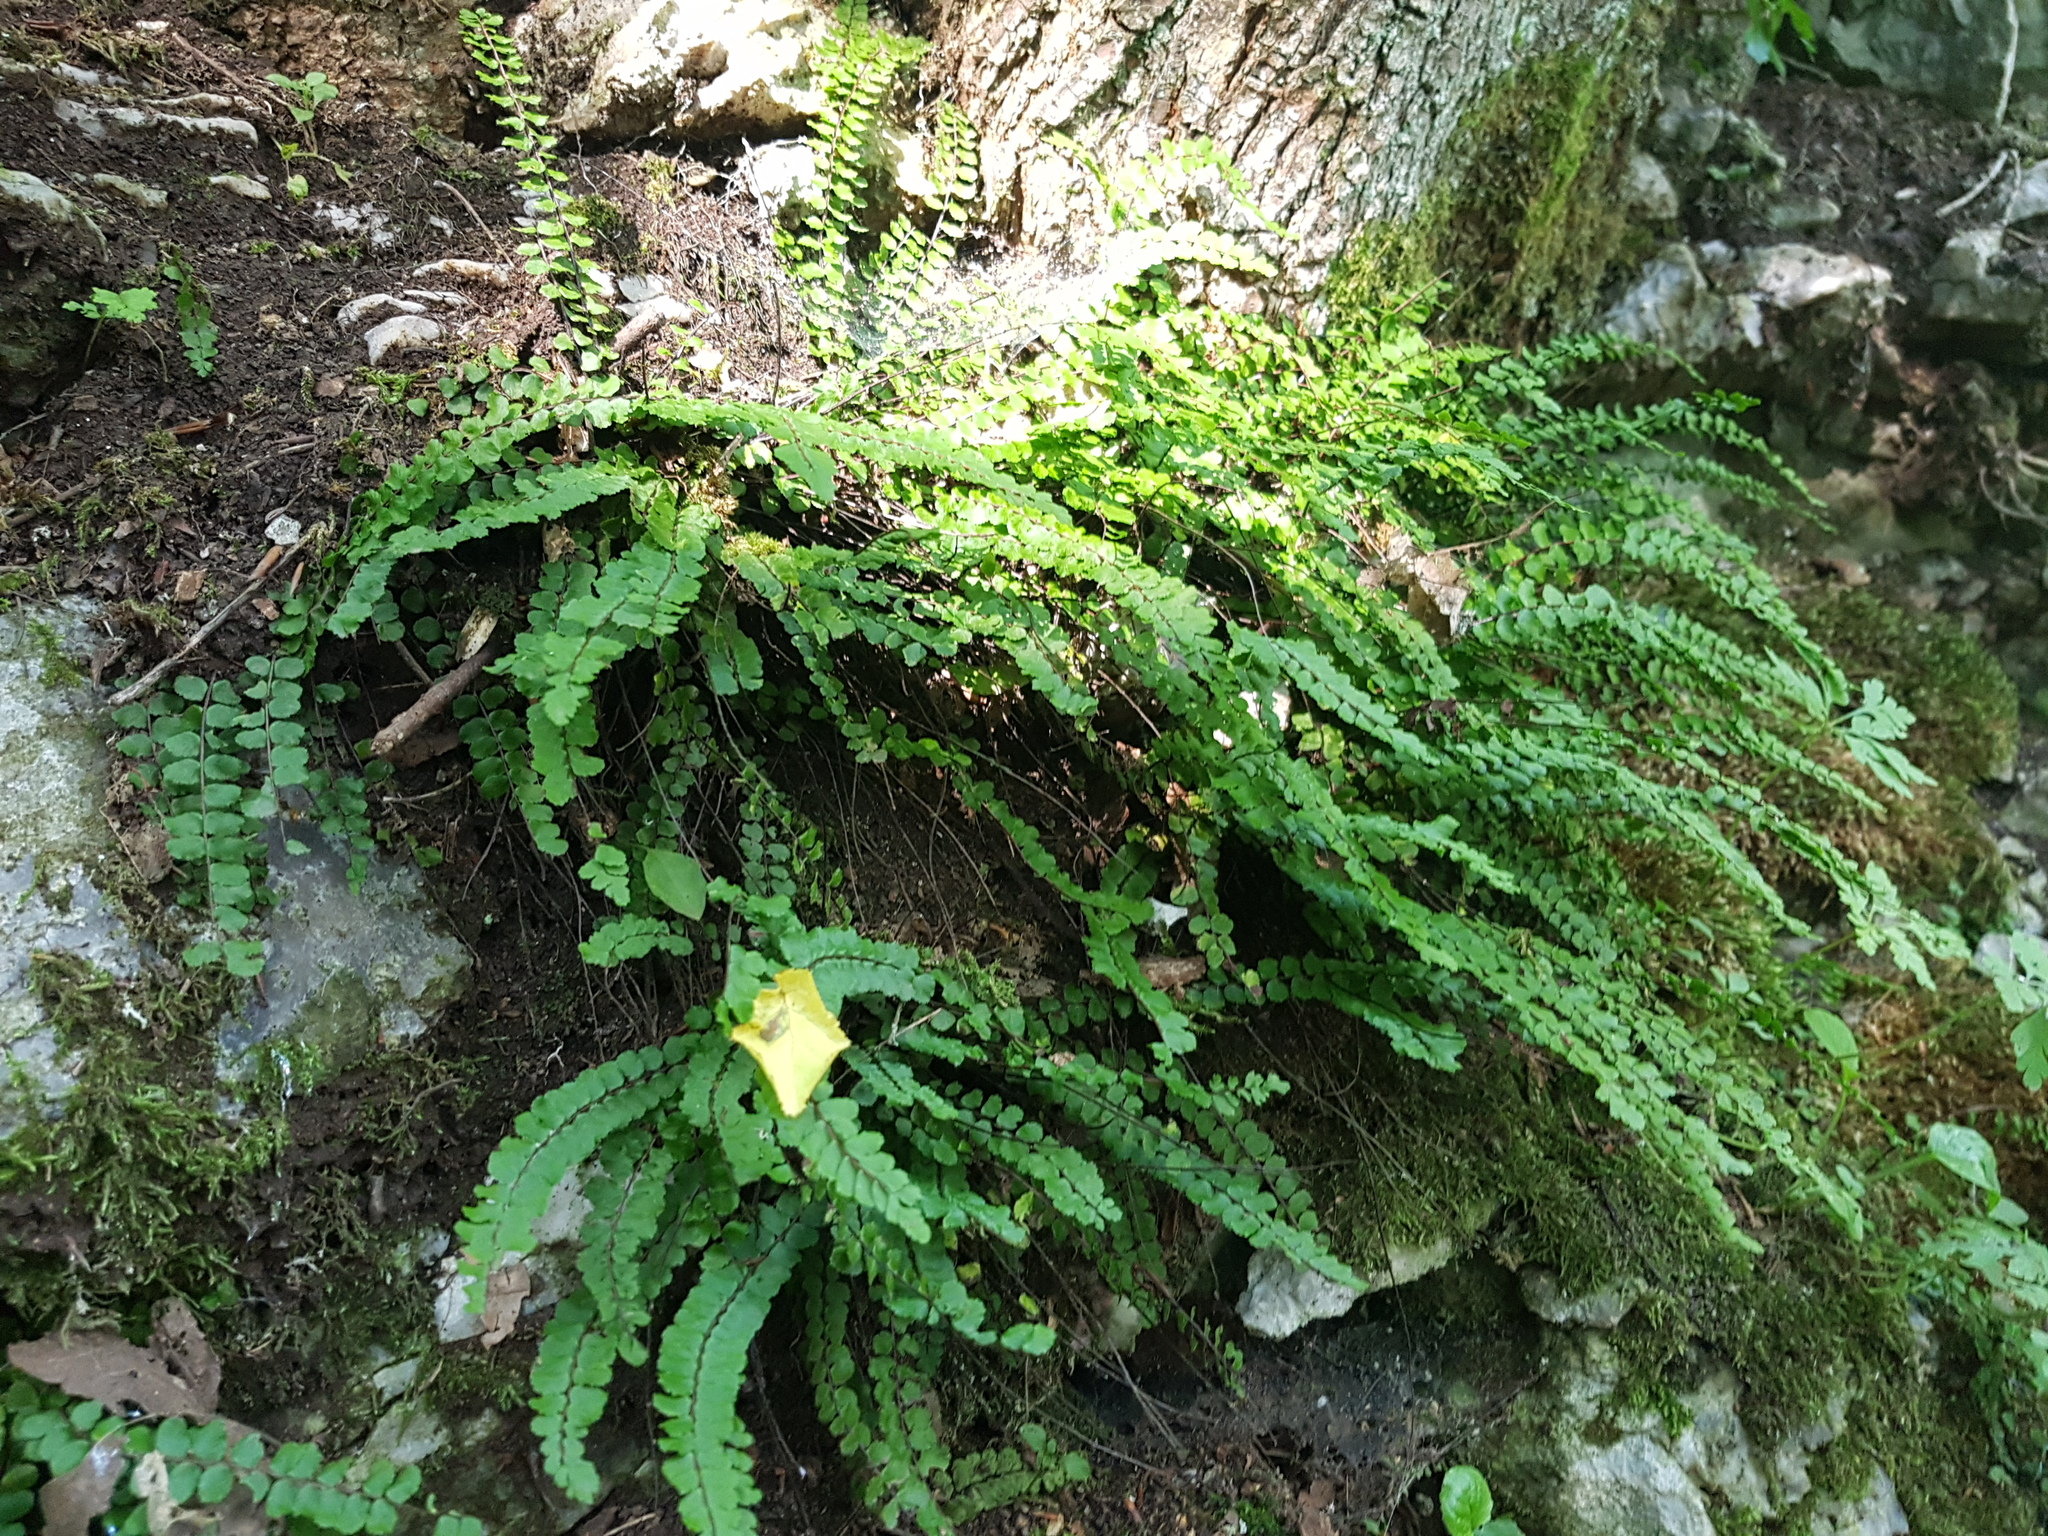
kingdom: Plantae
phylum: Tracheophyta
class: Polypodiopsida
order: Polypodiales
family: Aspleniaceae
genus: Asplenium
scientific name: Asplenium trichomanes
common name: Maidenhair spleenwort
